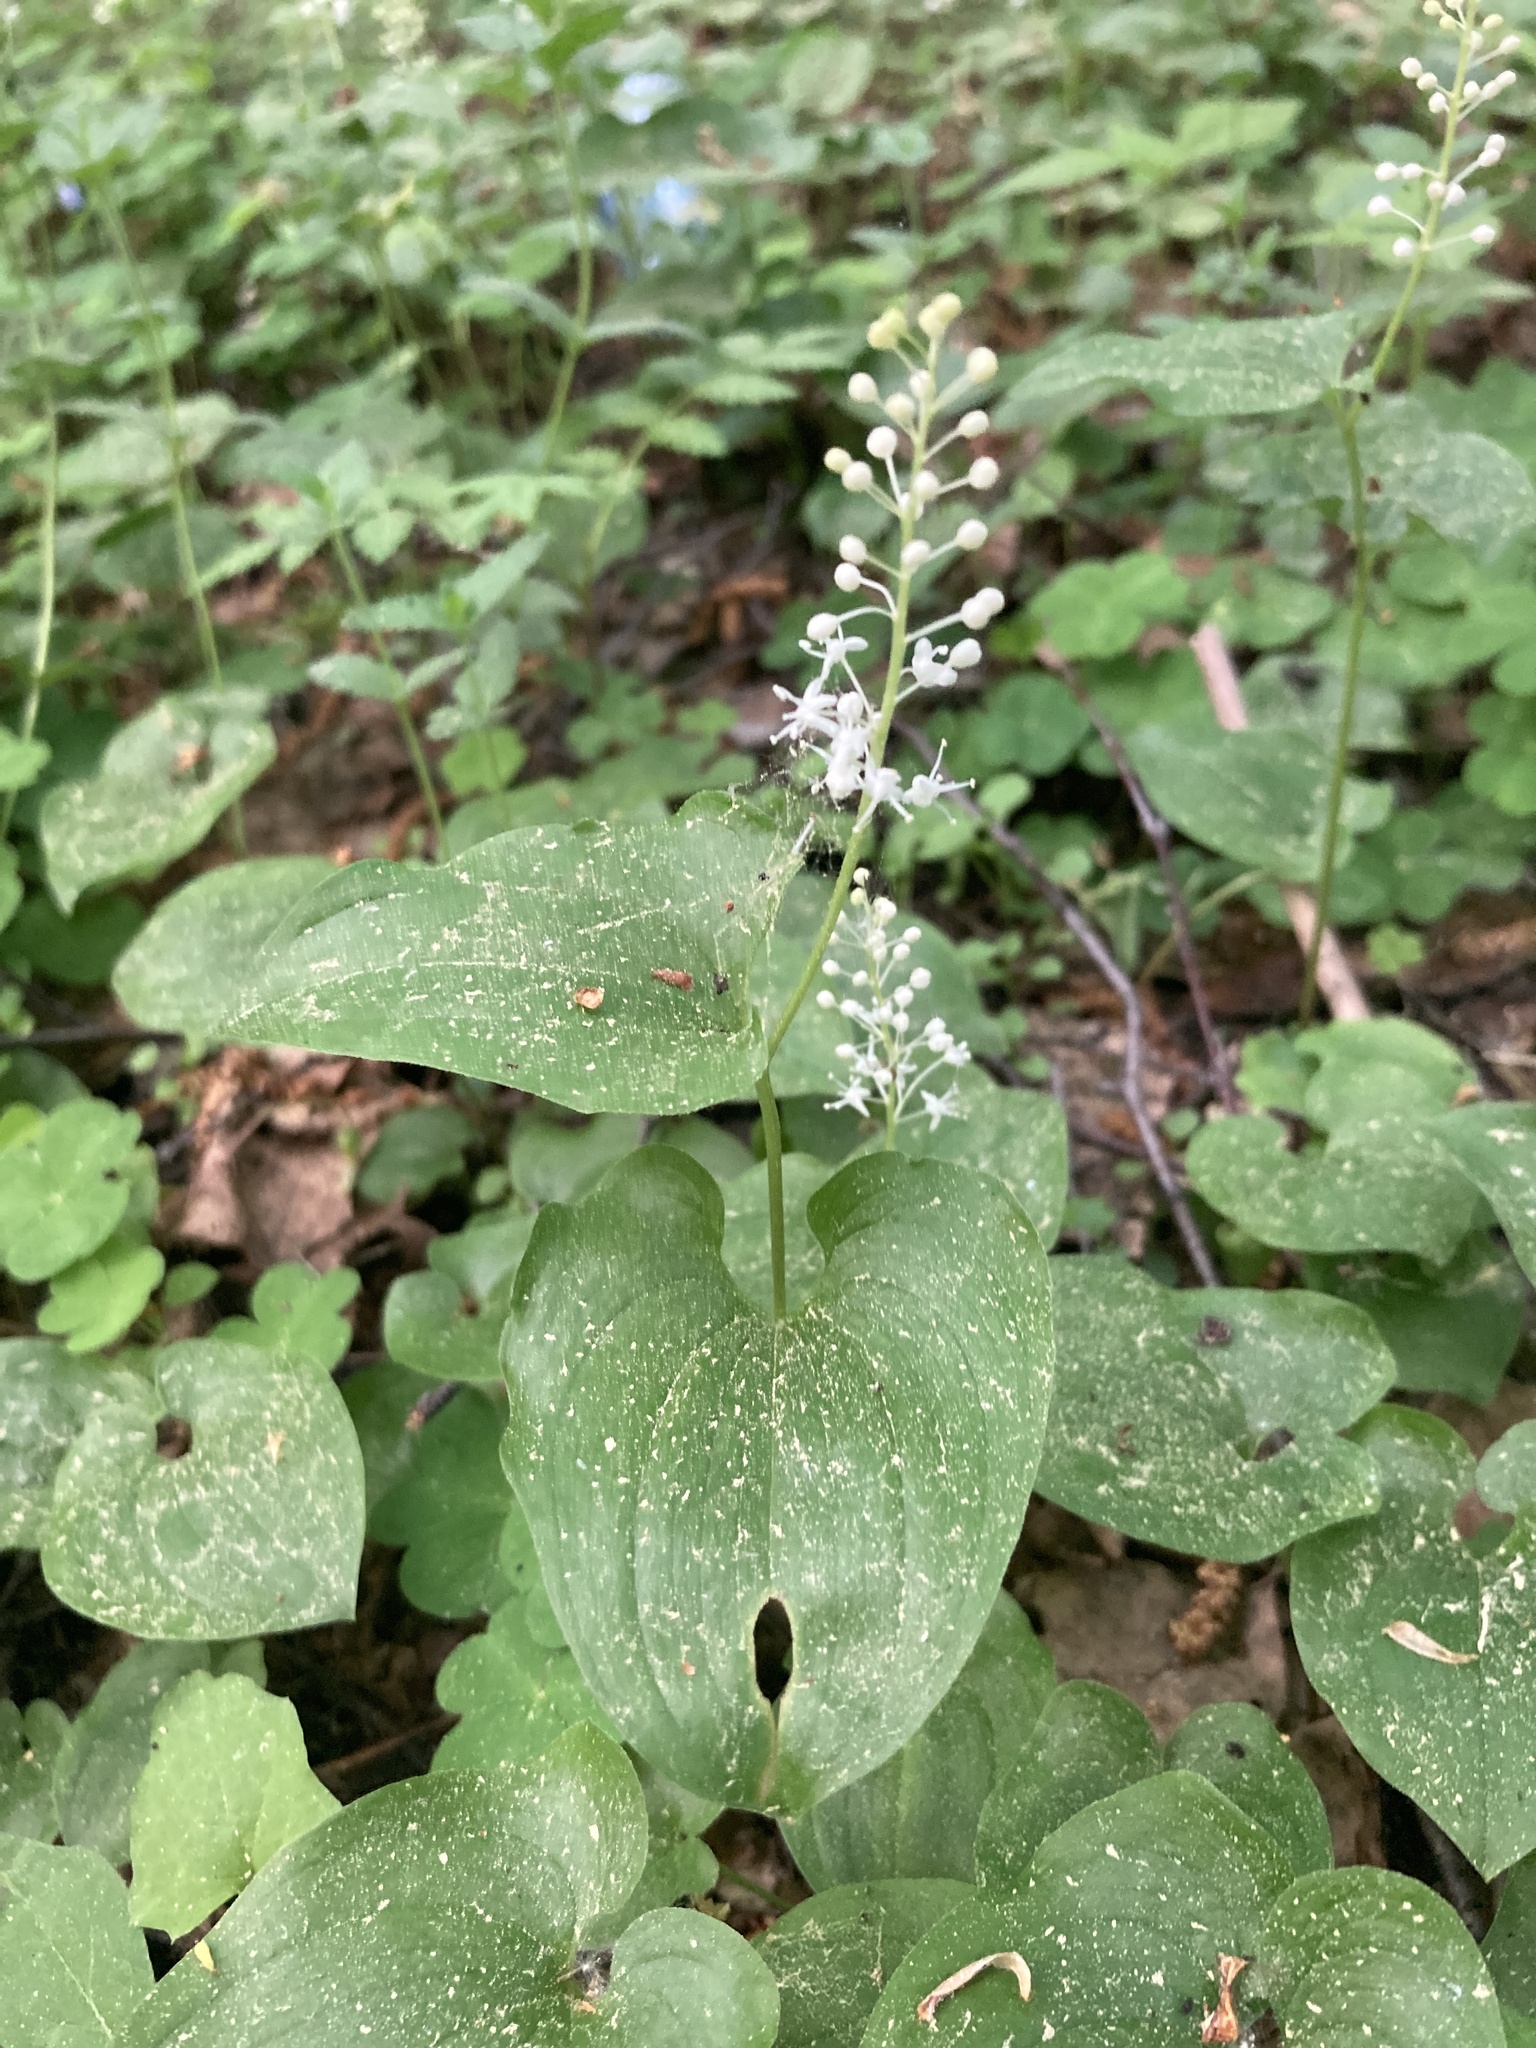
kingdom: Plantae
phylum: Tracheophyta
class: Liliopsida
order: Asparagales
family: Asparagaceae
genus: Maianthemum
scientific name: Maianthemum bifolium
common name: May lily
